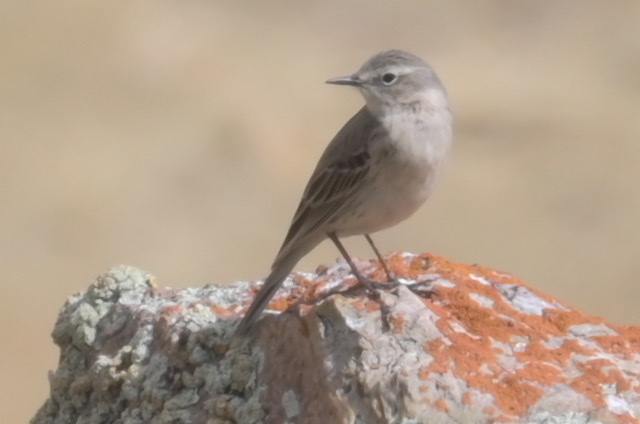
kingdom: Animalia
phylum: Chordata
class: Aves
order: Passeriformes
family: Motacillidae
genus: Anthus
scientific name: Anthus spinoletta
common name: Water pipit
